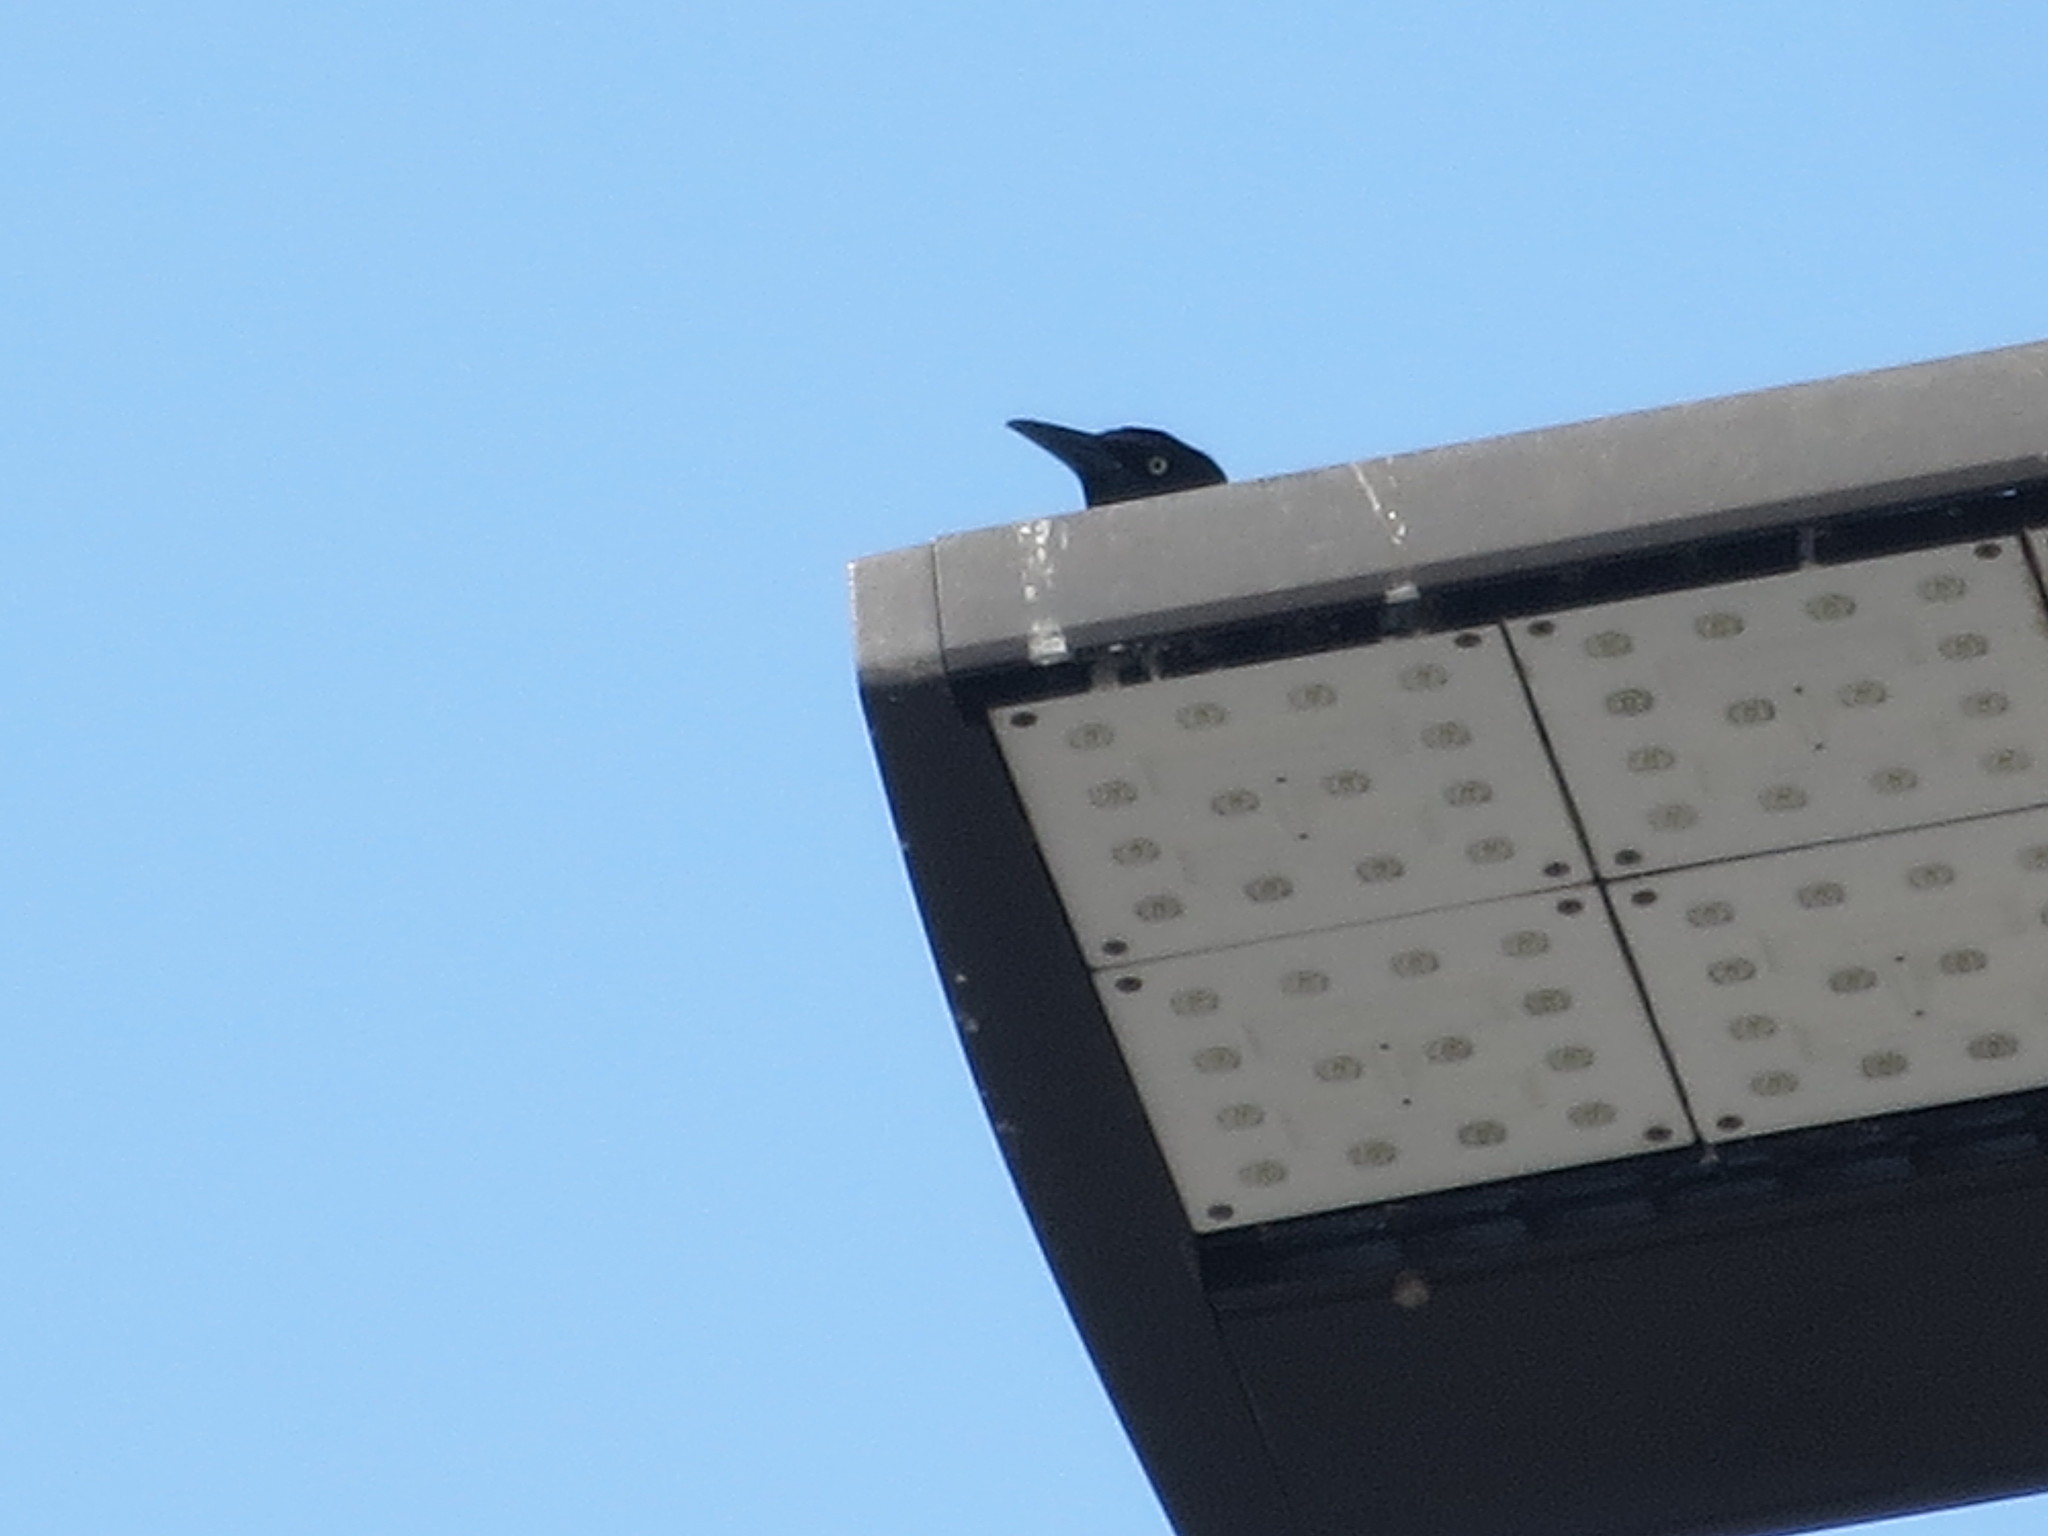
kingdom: Animalia
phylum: Chordata
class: Aves
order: Passeriformes
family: Icteridae
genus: Quiscalus
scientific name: Quiscalus major
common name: Boat-tailed grackle
